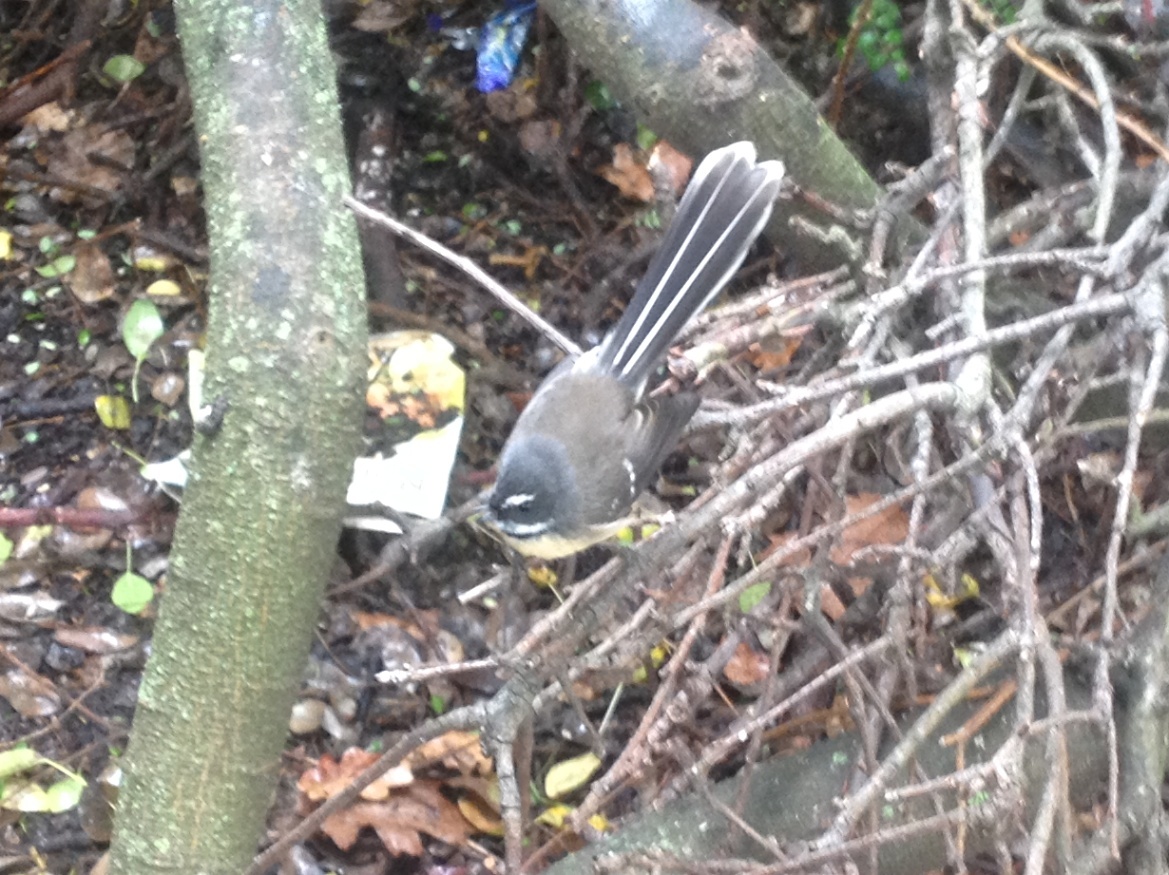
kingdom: Animalia
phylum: Chordata
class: Aves
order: Passeriformes
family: Rhipiduridae
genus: Rhipidura
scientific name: Rhipidura fuliginosa
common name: New zealand fantail
